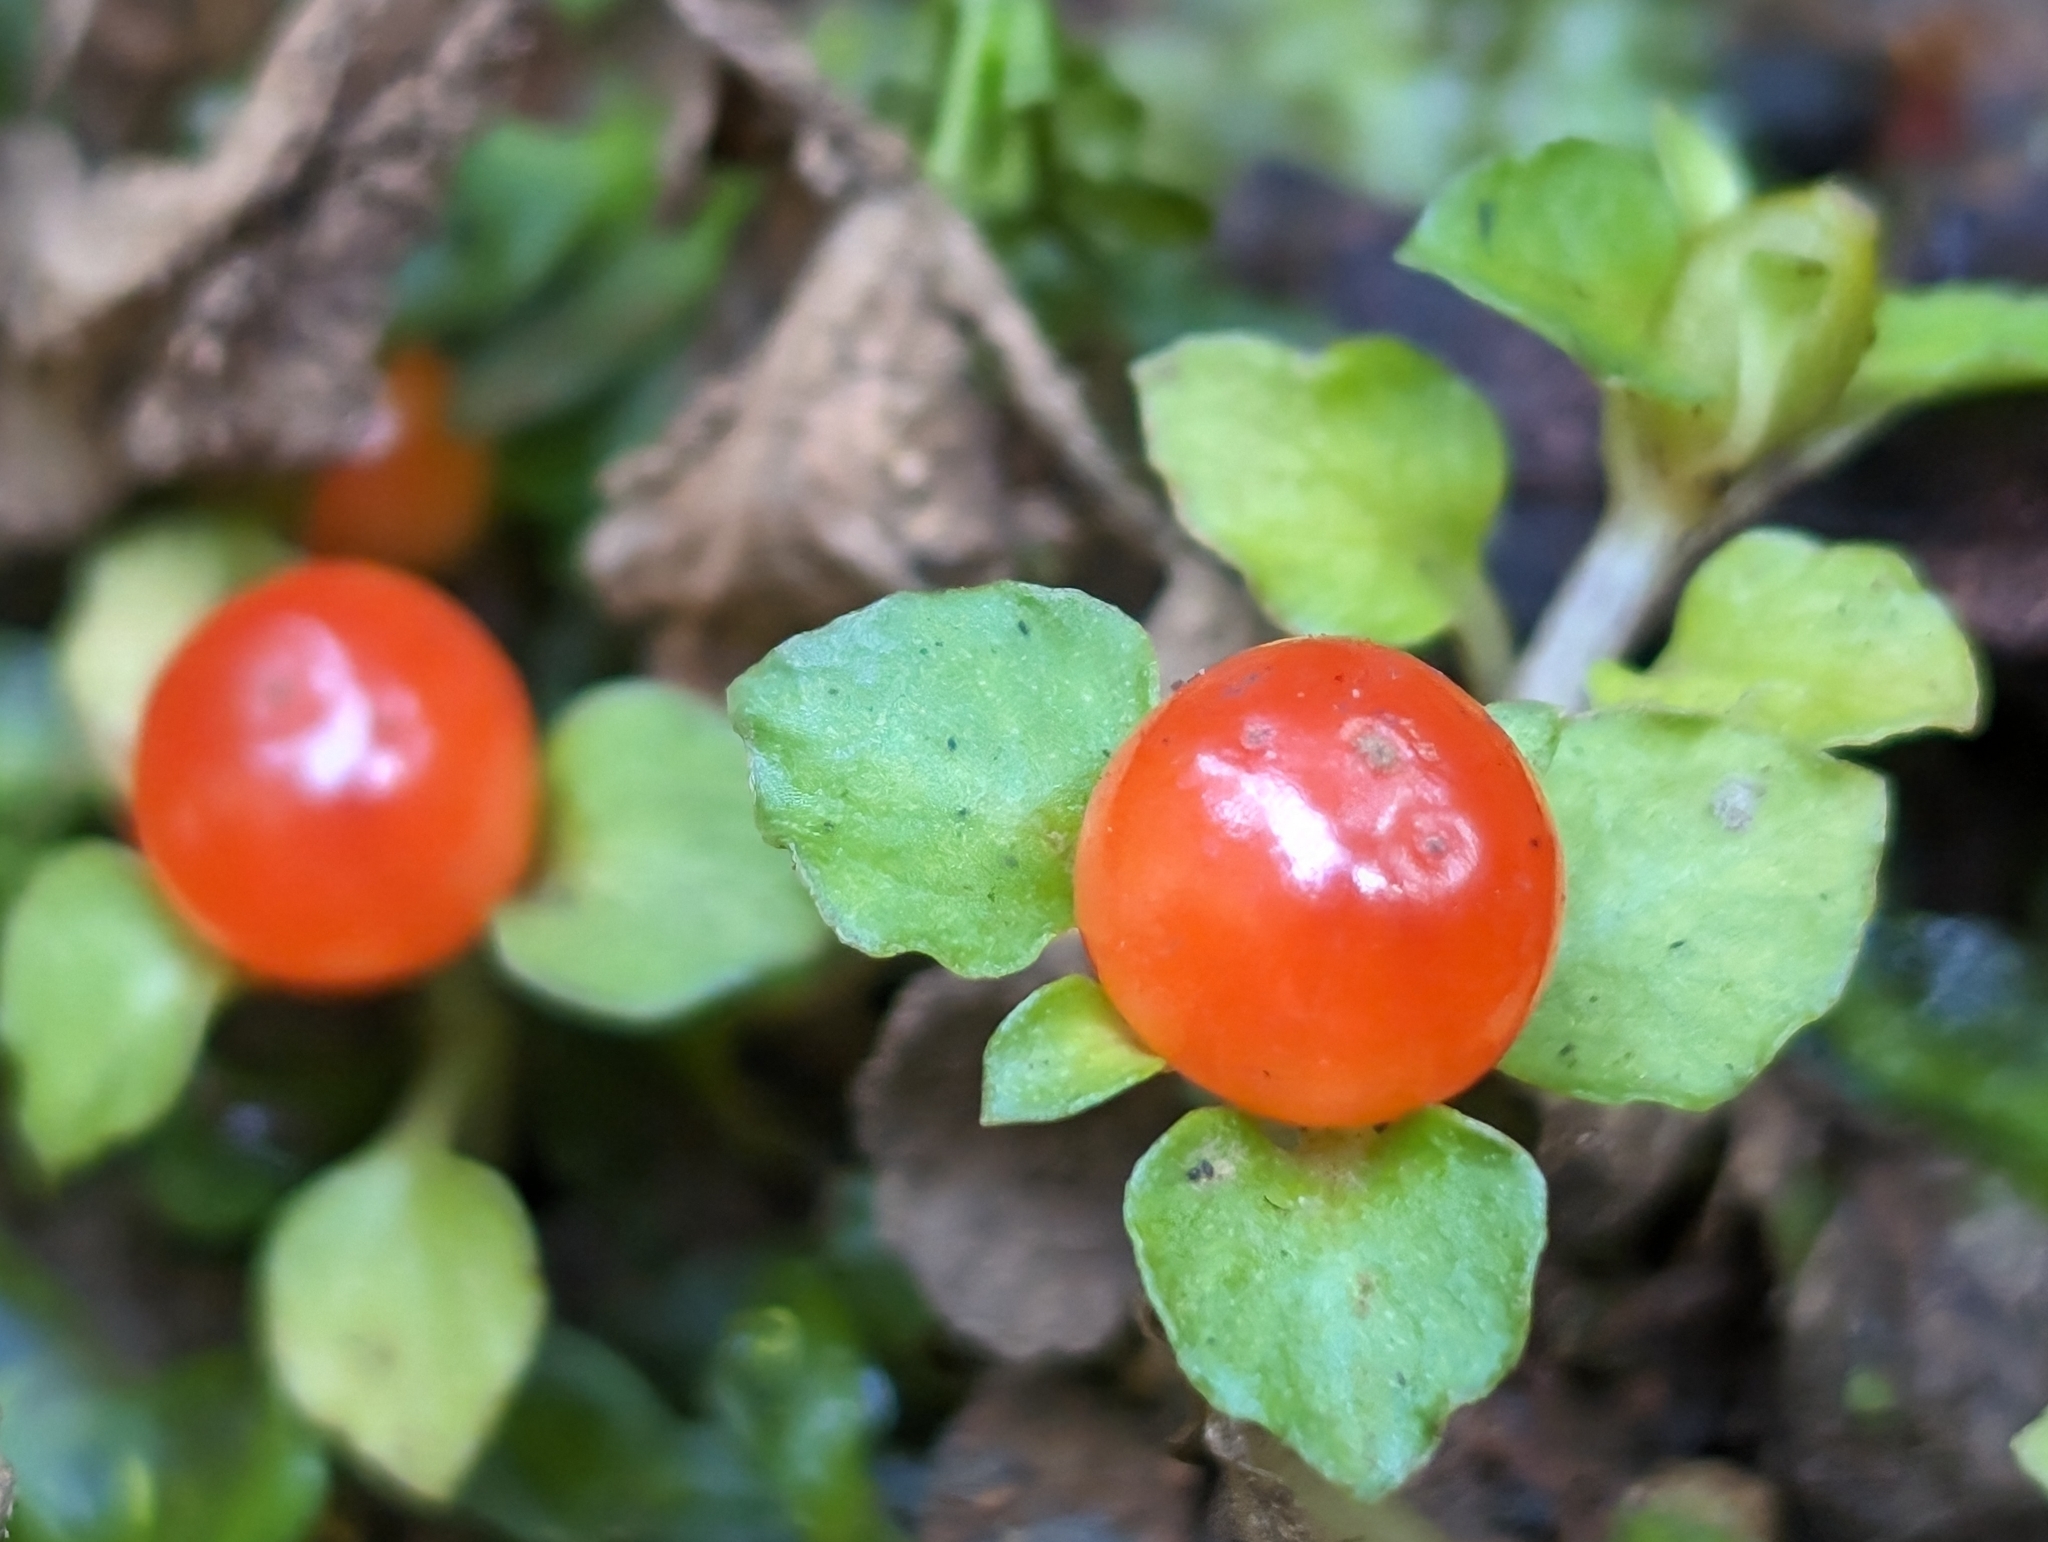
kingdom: Plantae
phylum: Tracheophyta
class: Magnoliopsida
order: Gentianales
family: Rubiaceae
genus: Nertera
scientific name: Nertera granadensis
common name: Beadplant
